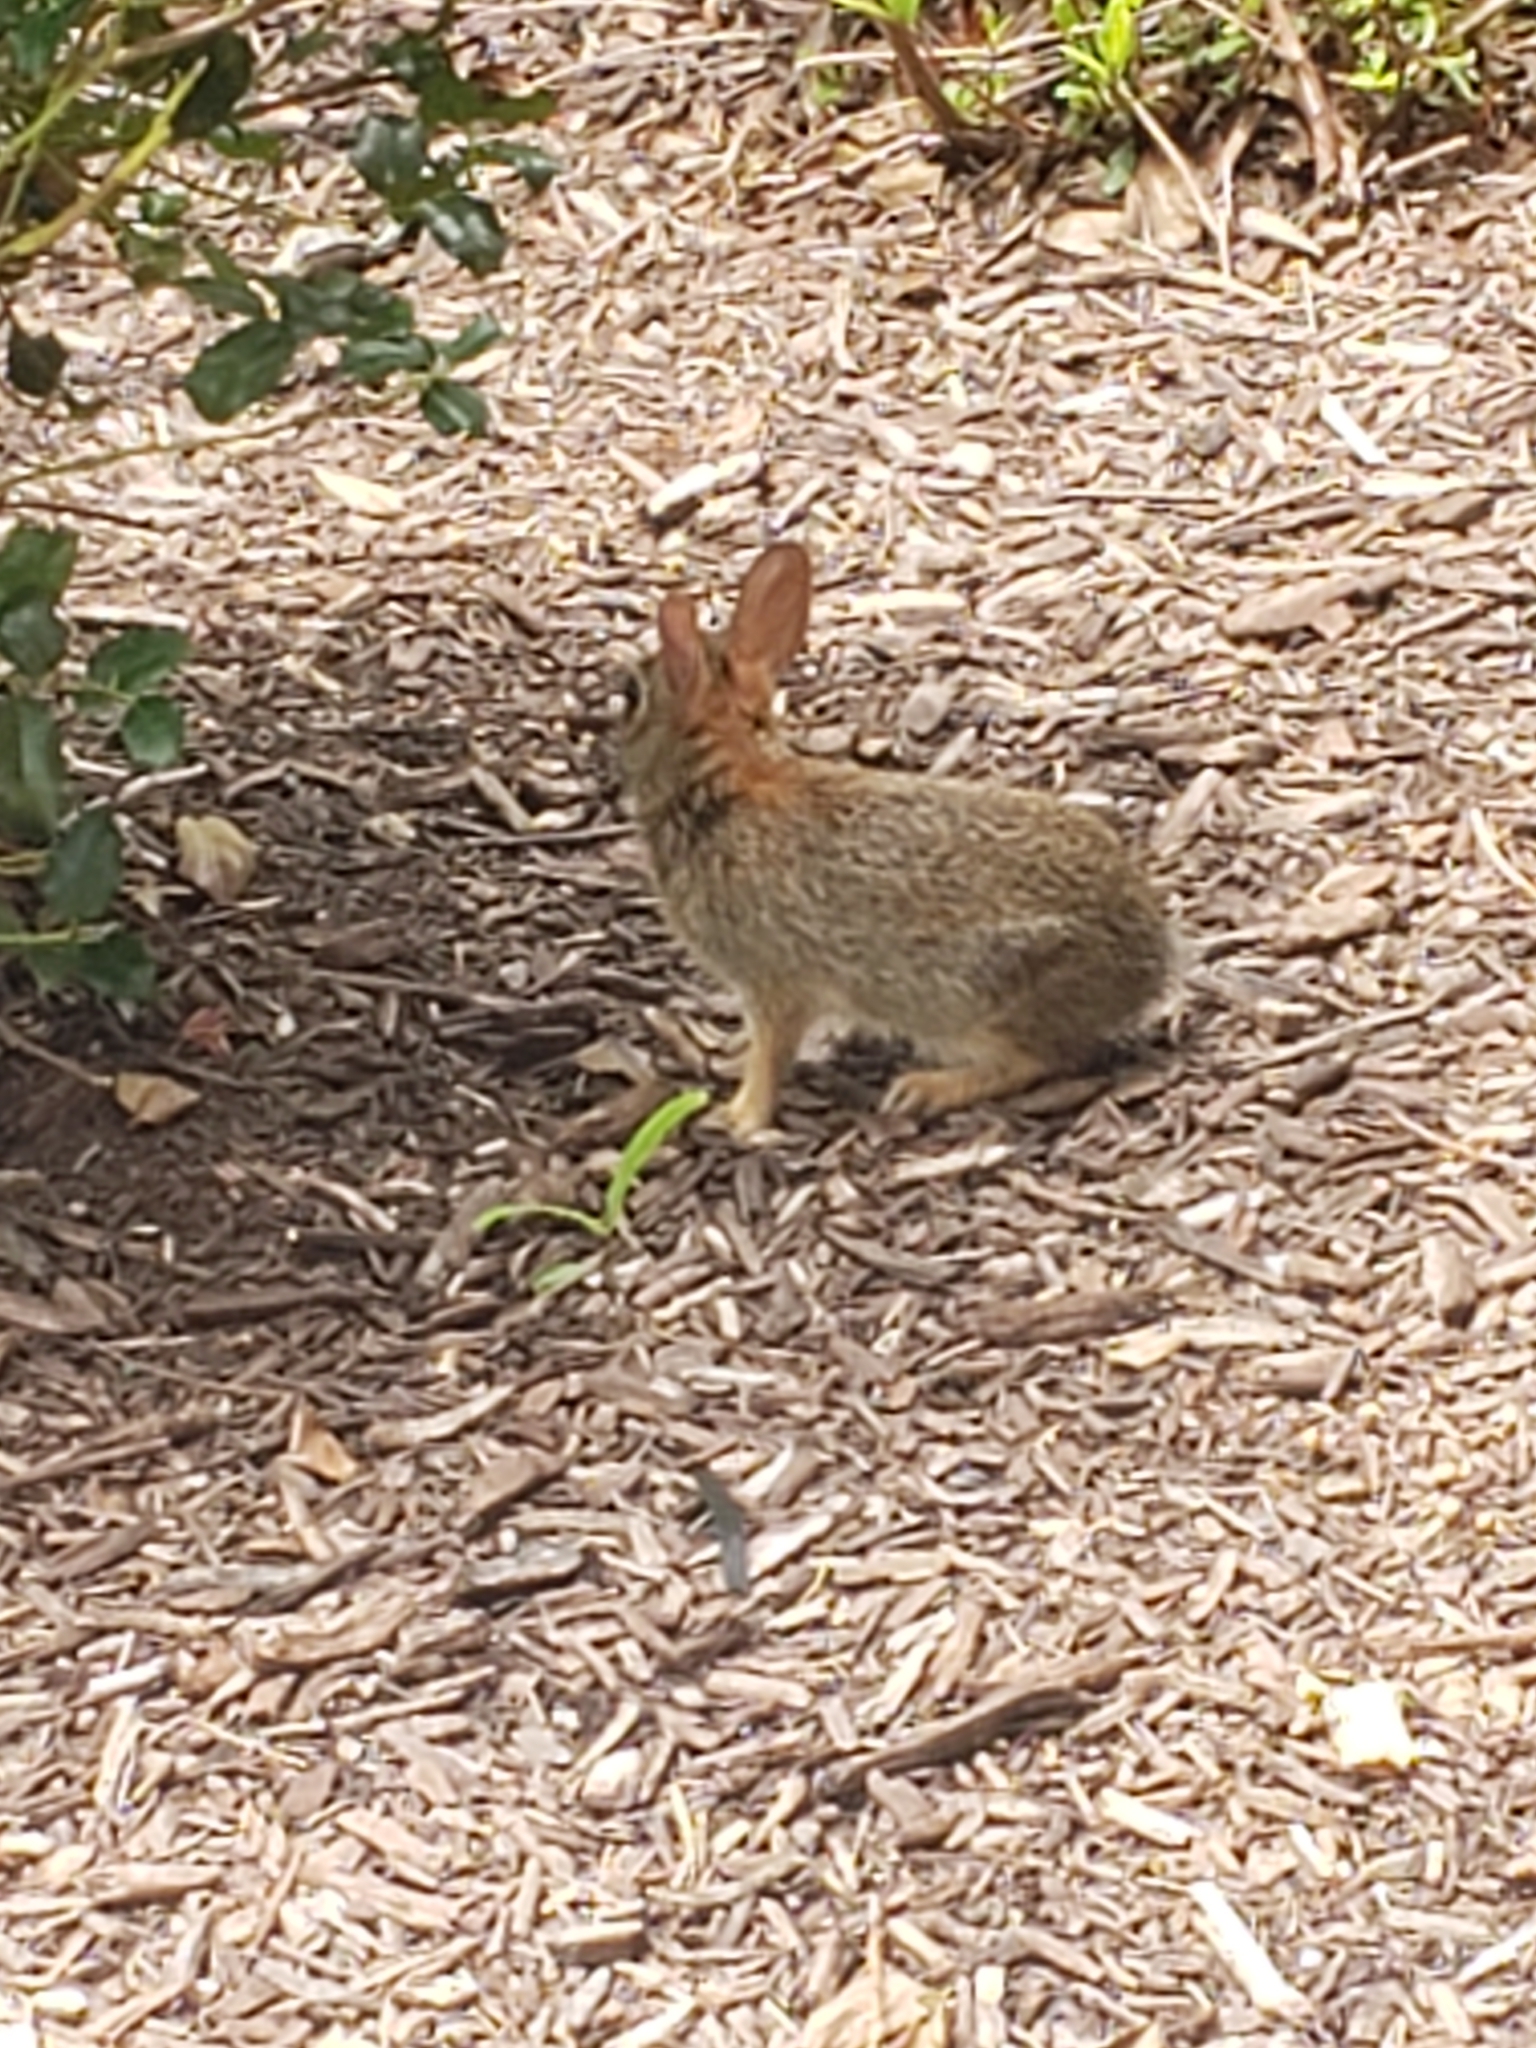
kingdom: Animalia
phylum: Chordata
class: Mammalia
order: Lagomorpha
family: Leporidae
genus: Sylvilagus
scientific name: Sylvilagus floridanus
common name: Eastern cottontail
